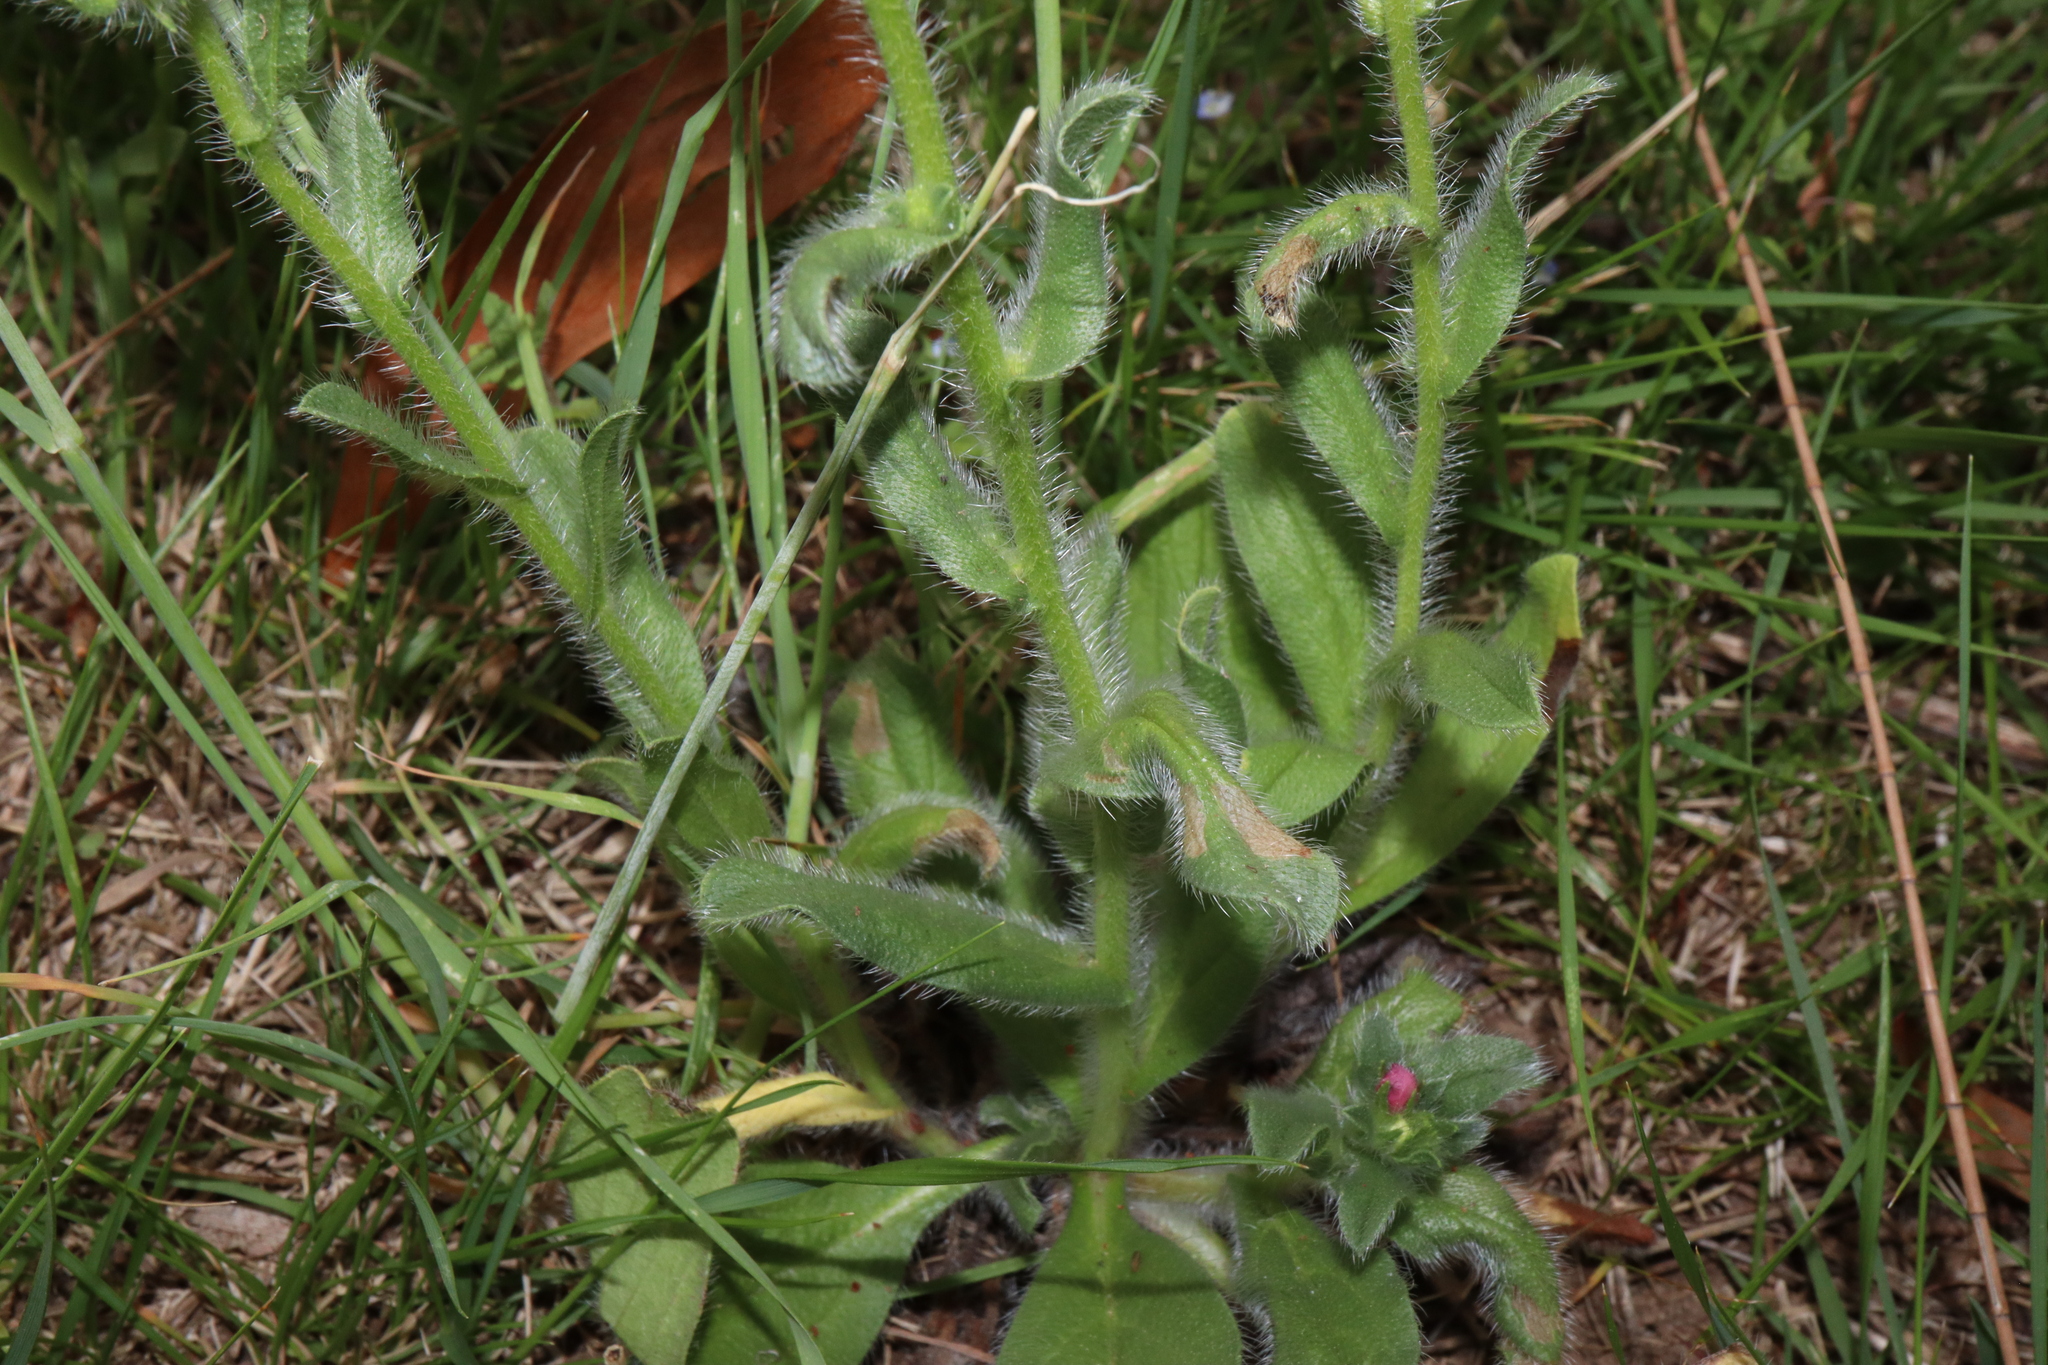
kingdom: Plantae
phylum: Tracheophyta
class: Magnoliopsida
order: Boraginales
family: Boraginaceae
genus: Echium
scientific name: Echium plantagineum
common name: Purple viper's-bugloss
